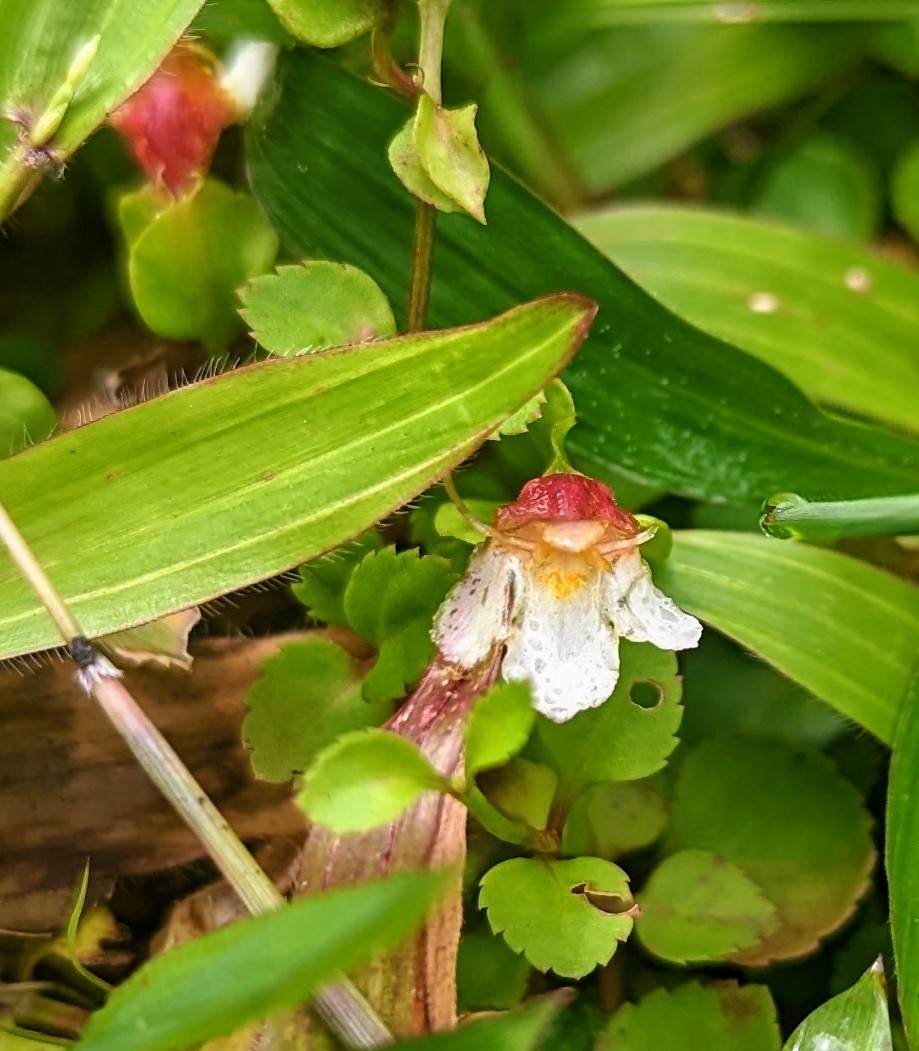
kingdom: Plantae
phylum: Tracheophyta
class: Magnoliopsida
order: Lamiales
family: Linderniaceae
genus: Legazpia
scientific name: Legazpia polygonoides
